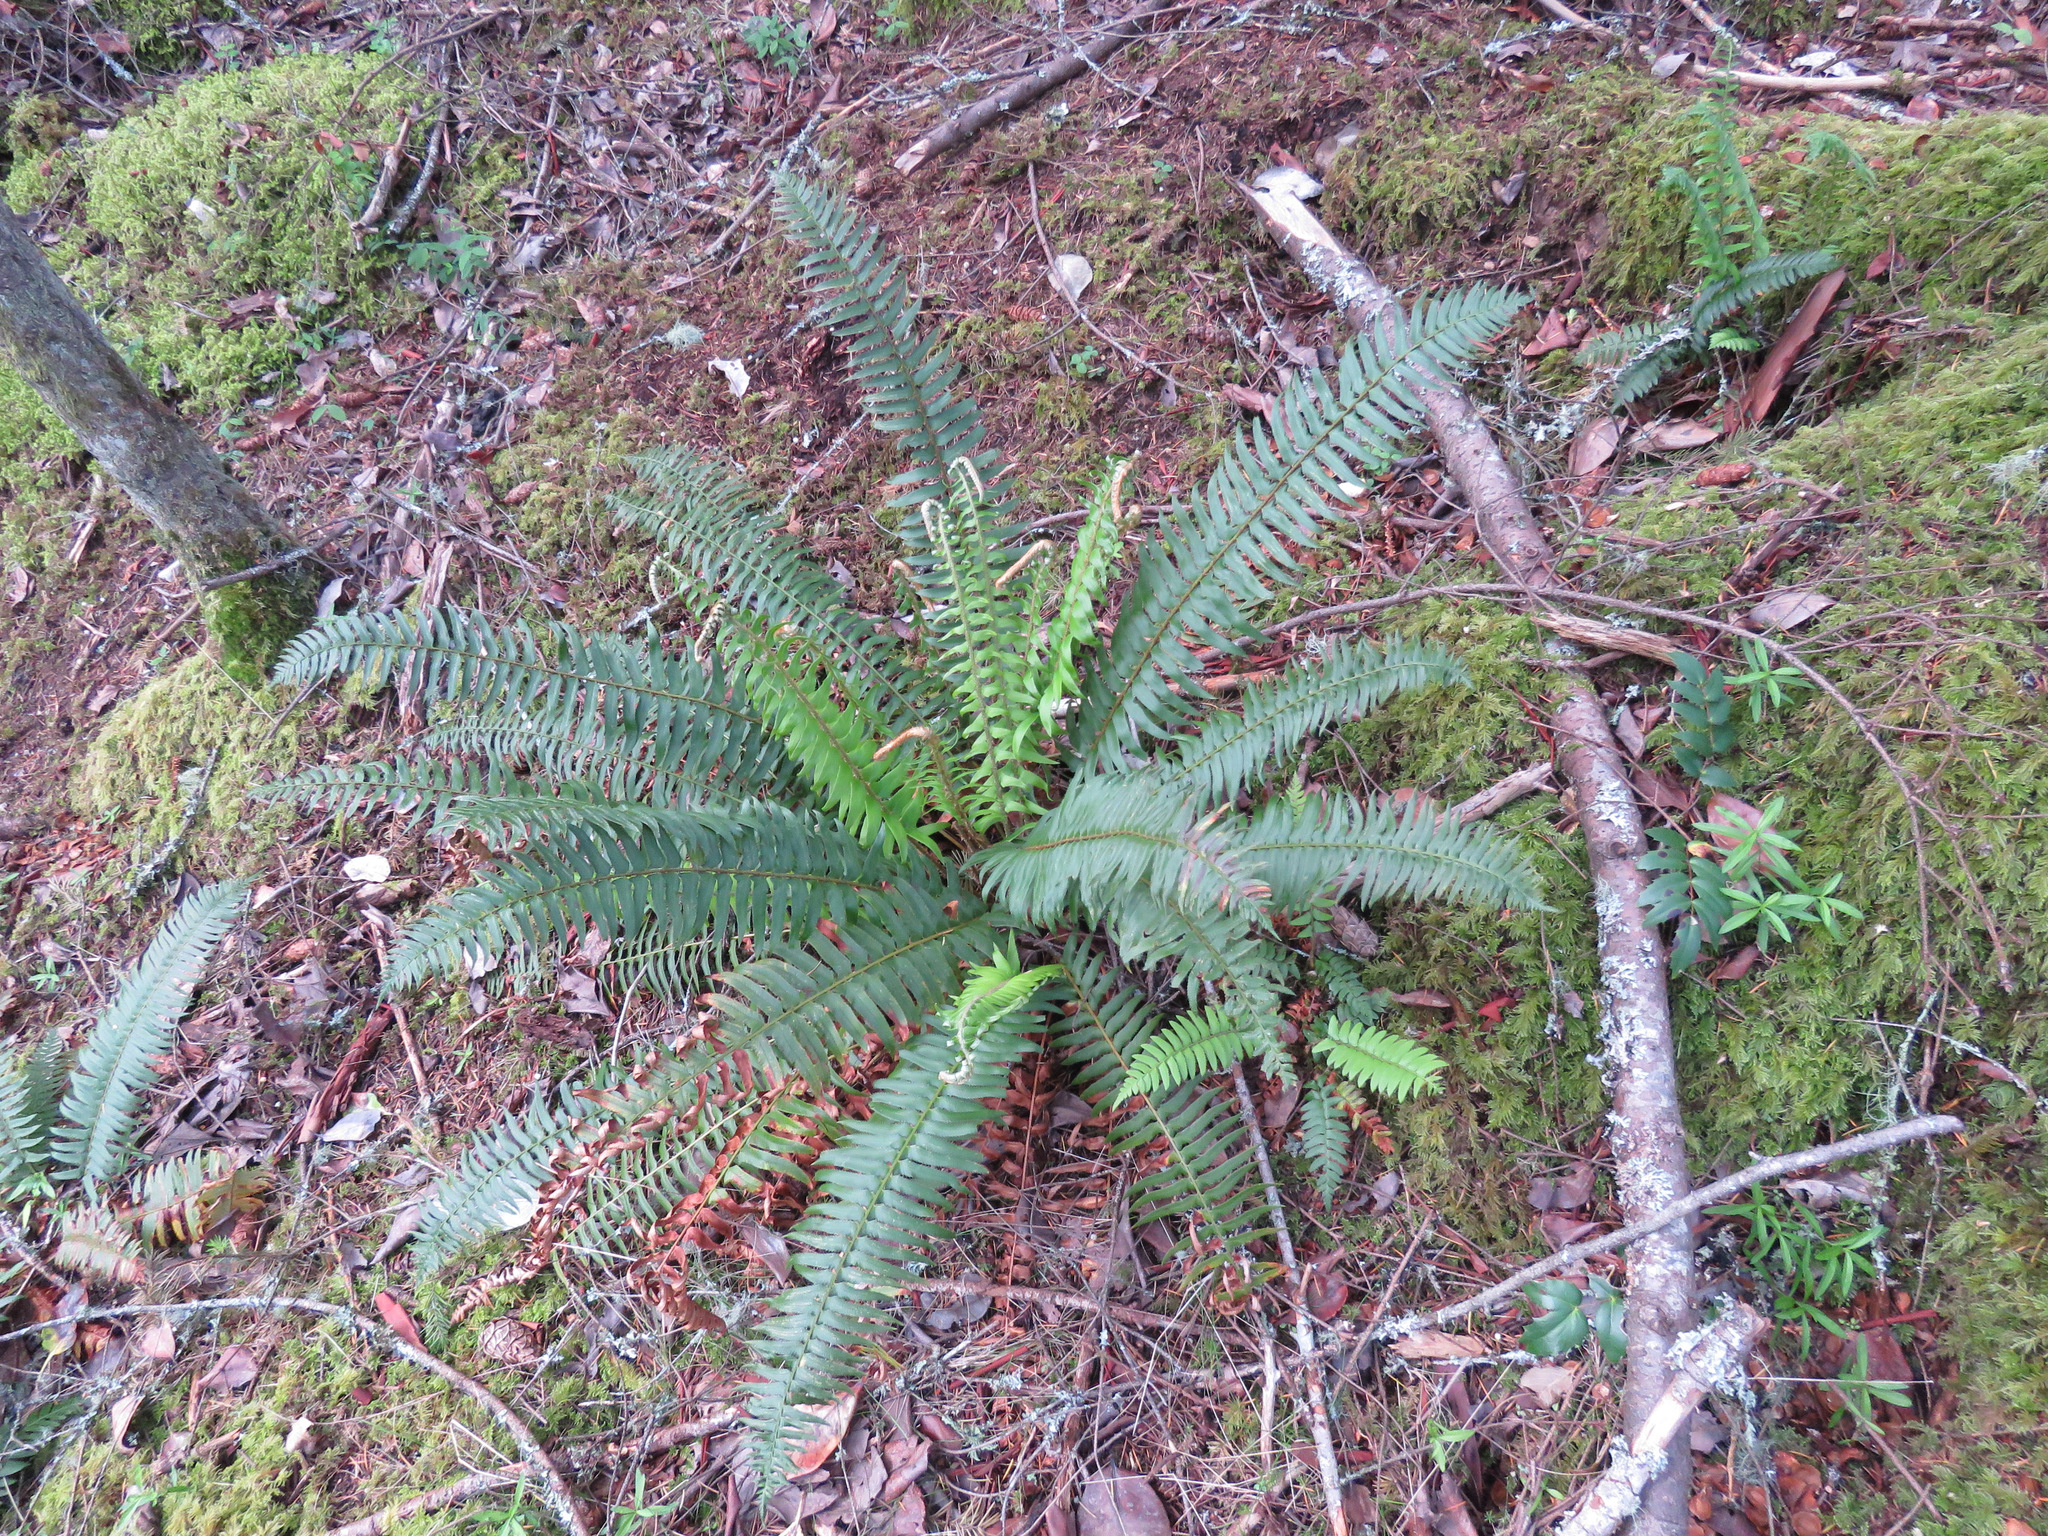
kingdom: Plantae
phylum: Tracheophyta
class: Polypodiopsida
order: Polypodiales
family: Dryopteridaceae
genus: Polystichum
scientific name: Polystichum munitum
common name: Western sword-fern
